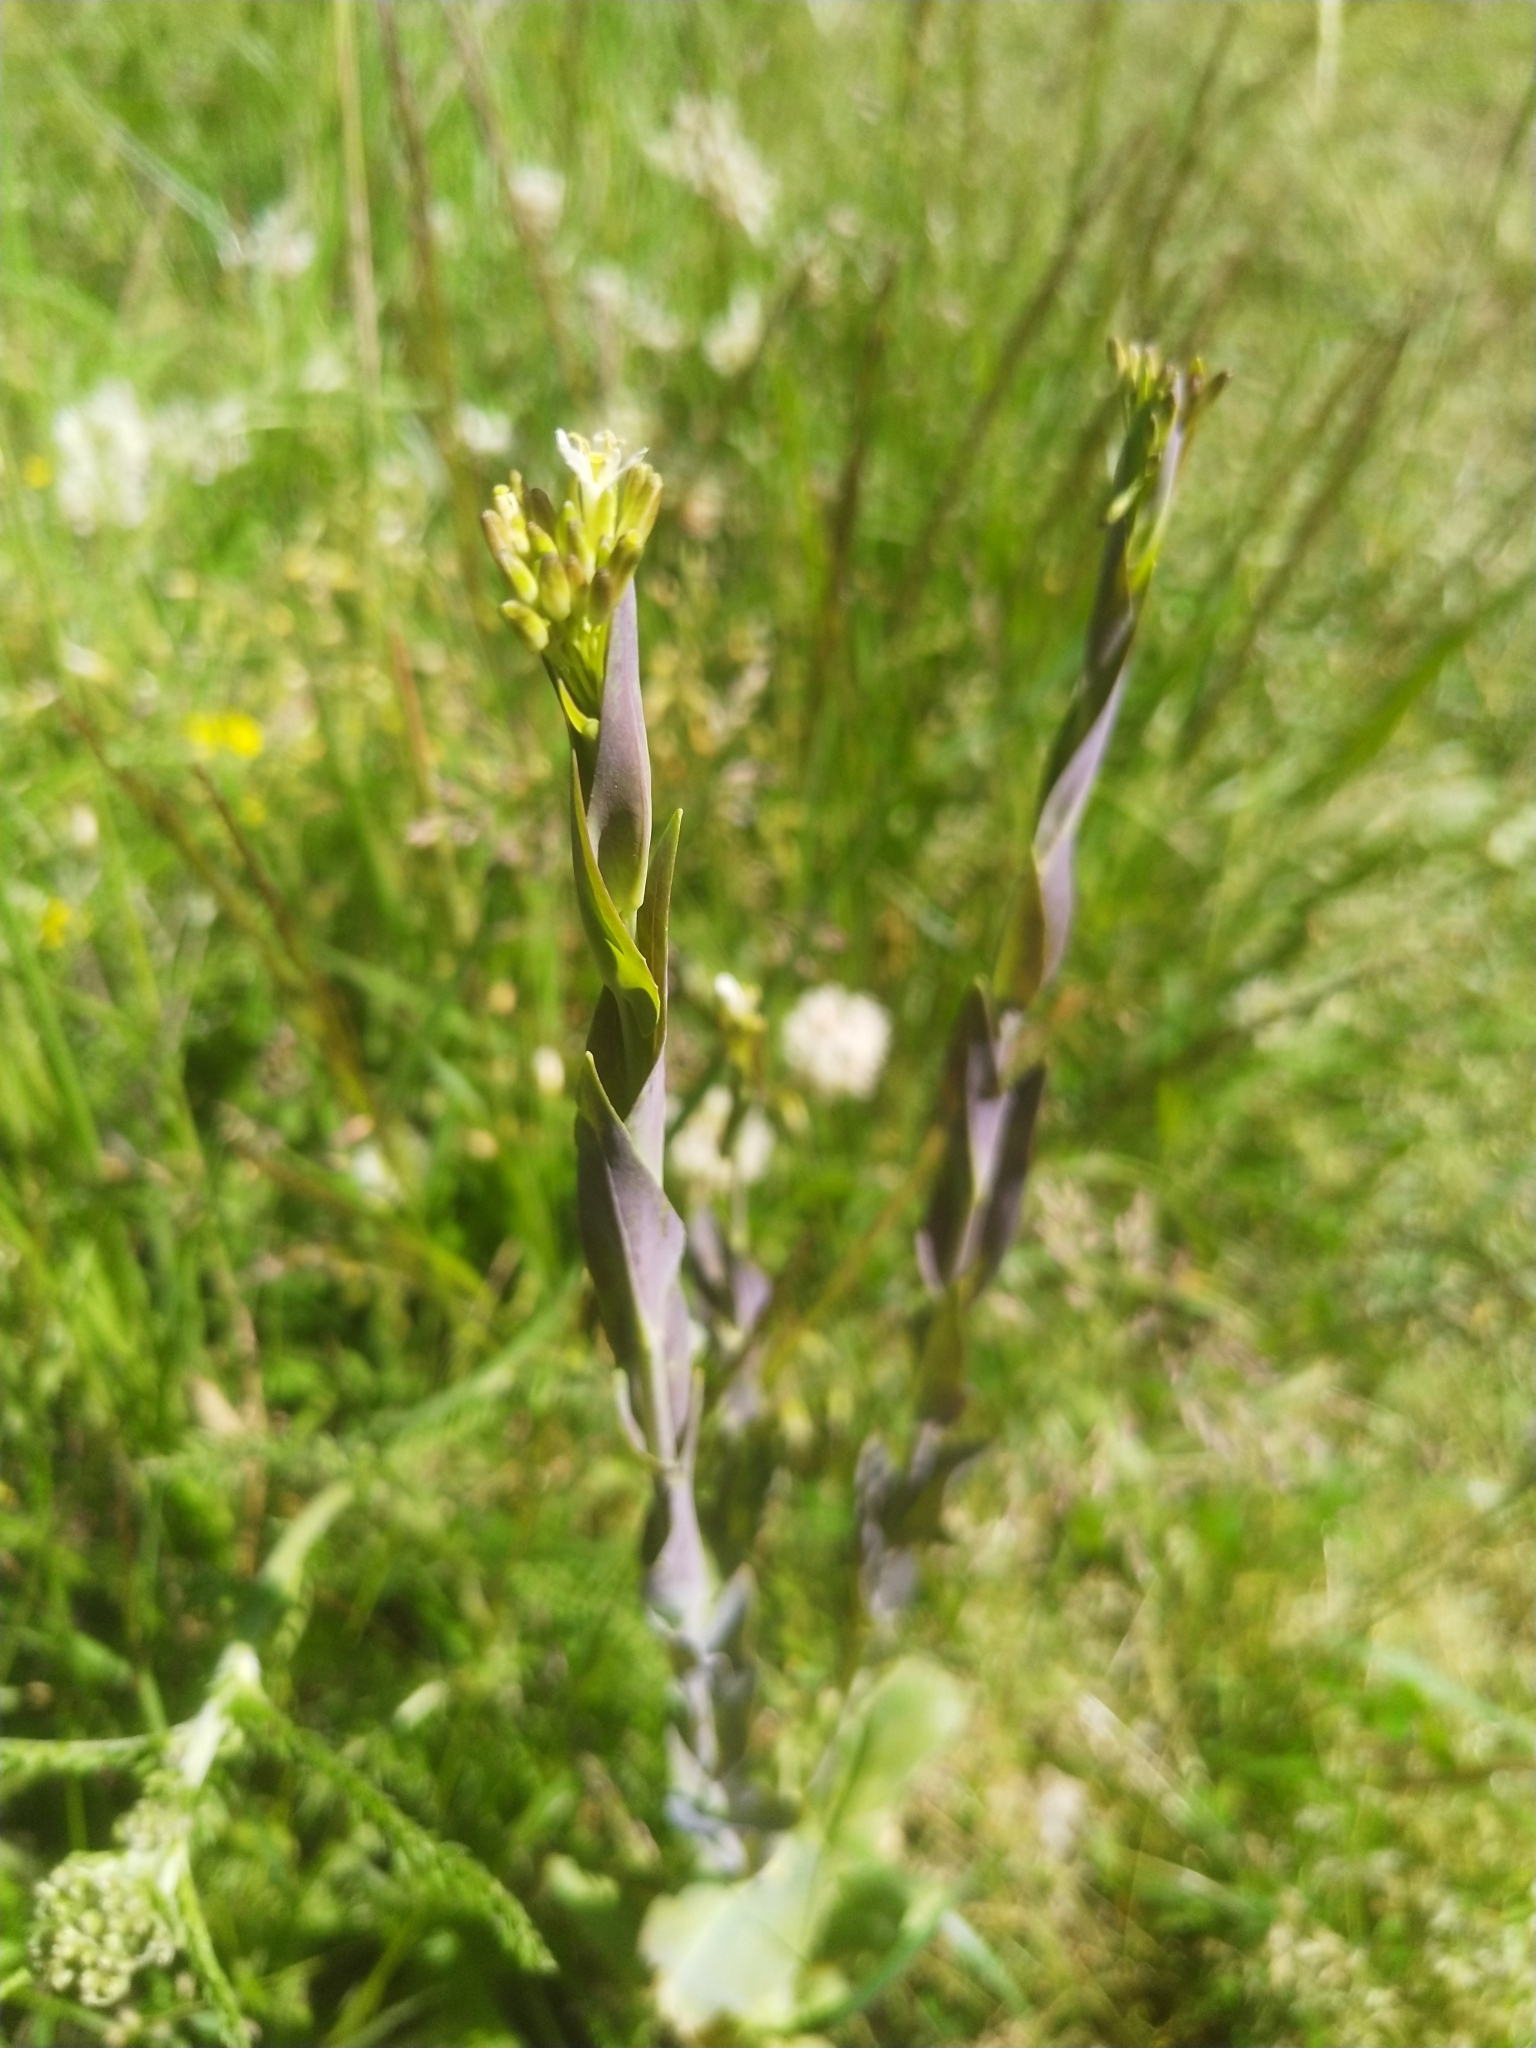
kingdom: Plantae
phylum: Tracheophyta
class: Magnoliopsida
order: Brassicales
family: Brassicaceae
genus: Turritis
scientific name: Turritis glabra
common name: Tower rockcress
